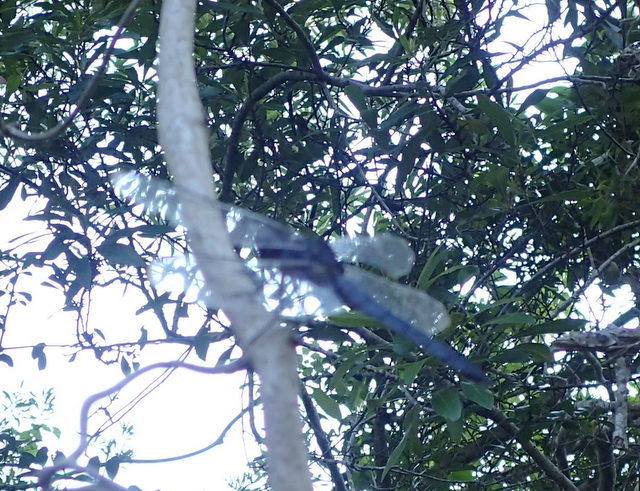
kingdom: Animalia
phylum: Arthropoda
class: Insecta
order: Odonata
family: Libellulidae
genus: Libellula
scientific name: Libellula incesta
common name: Slaty skimmer
